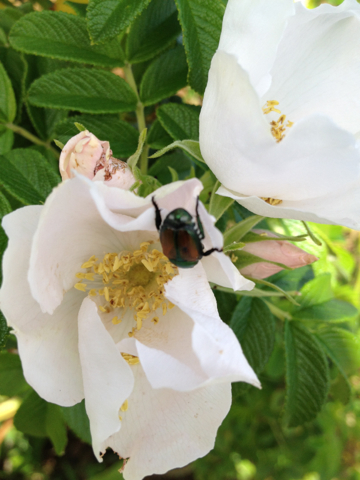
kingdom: Animalia
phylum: Arthropoda
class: Insecta
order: Coleoptera
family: Scarabaeidae
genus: Popillia
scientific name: Popillia japonica
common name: Japanese beetle
